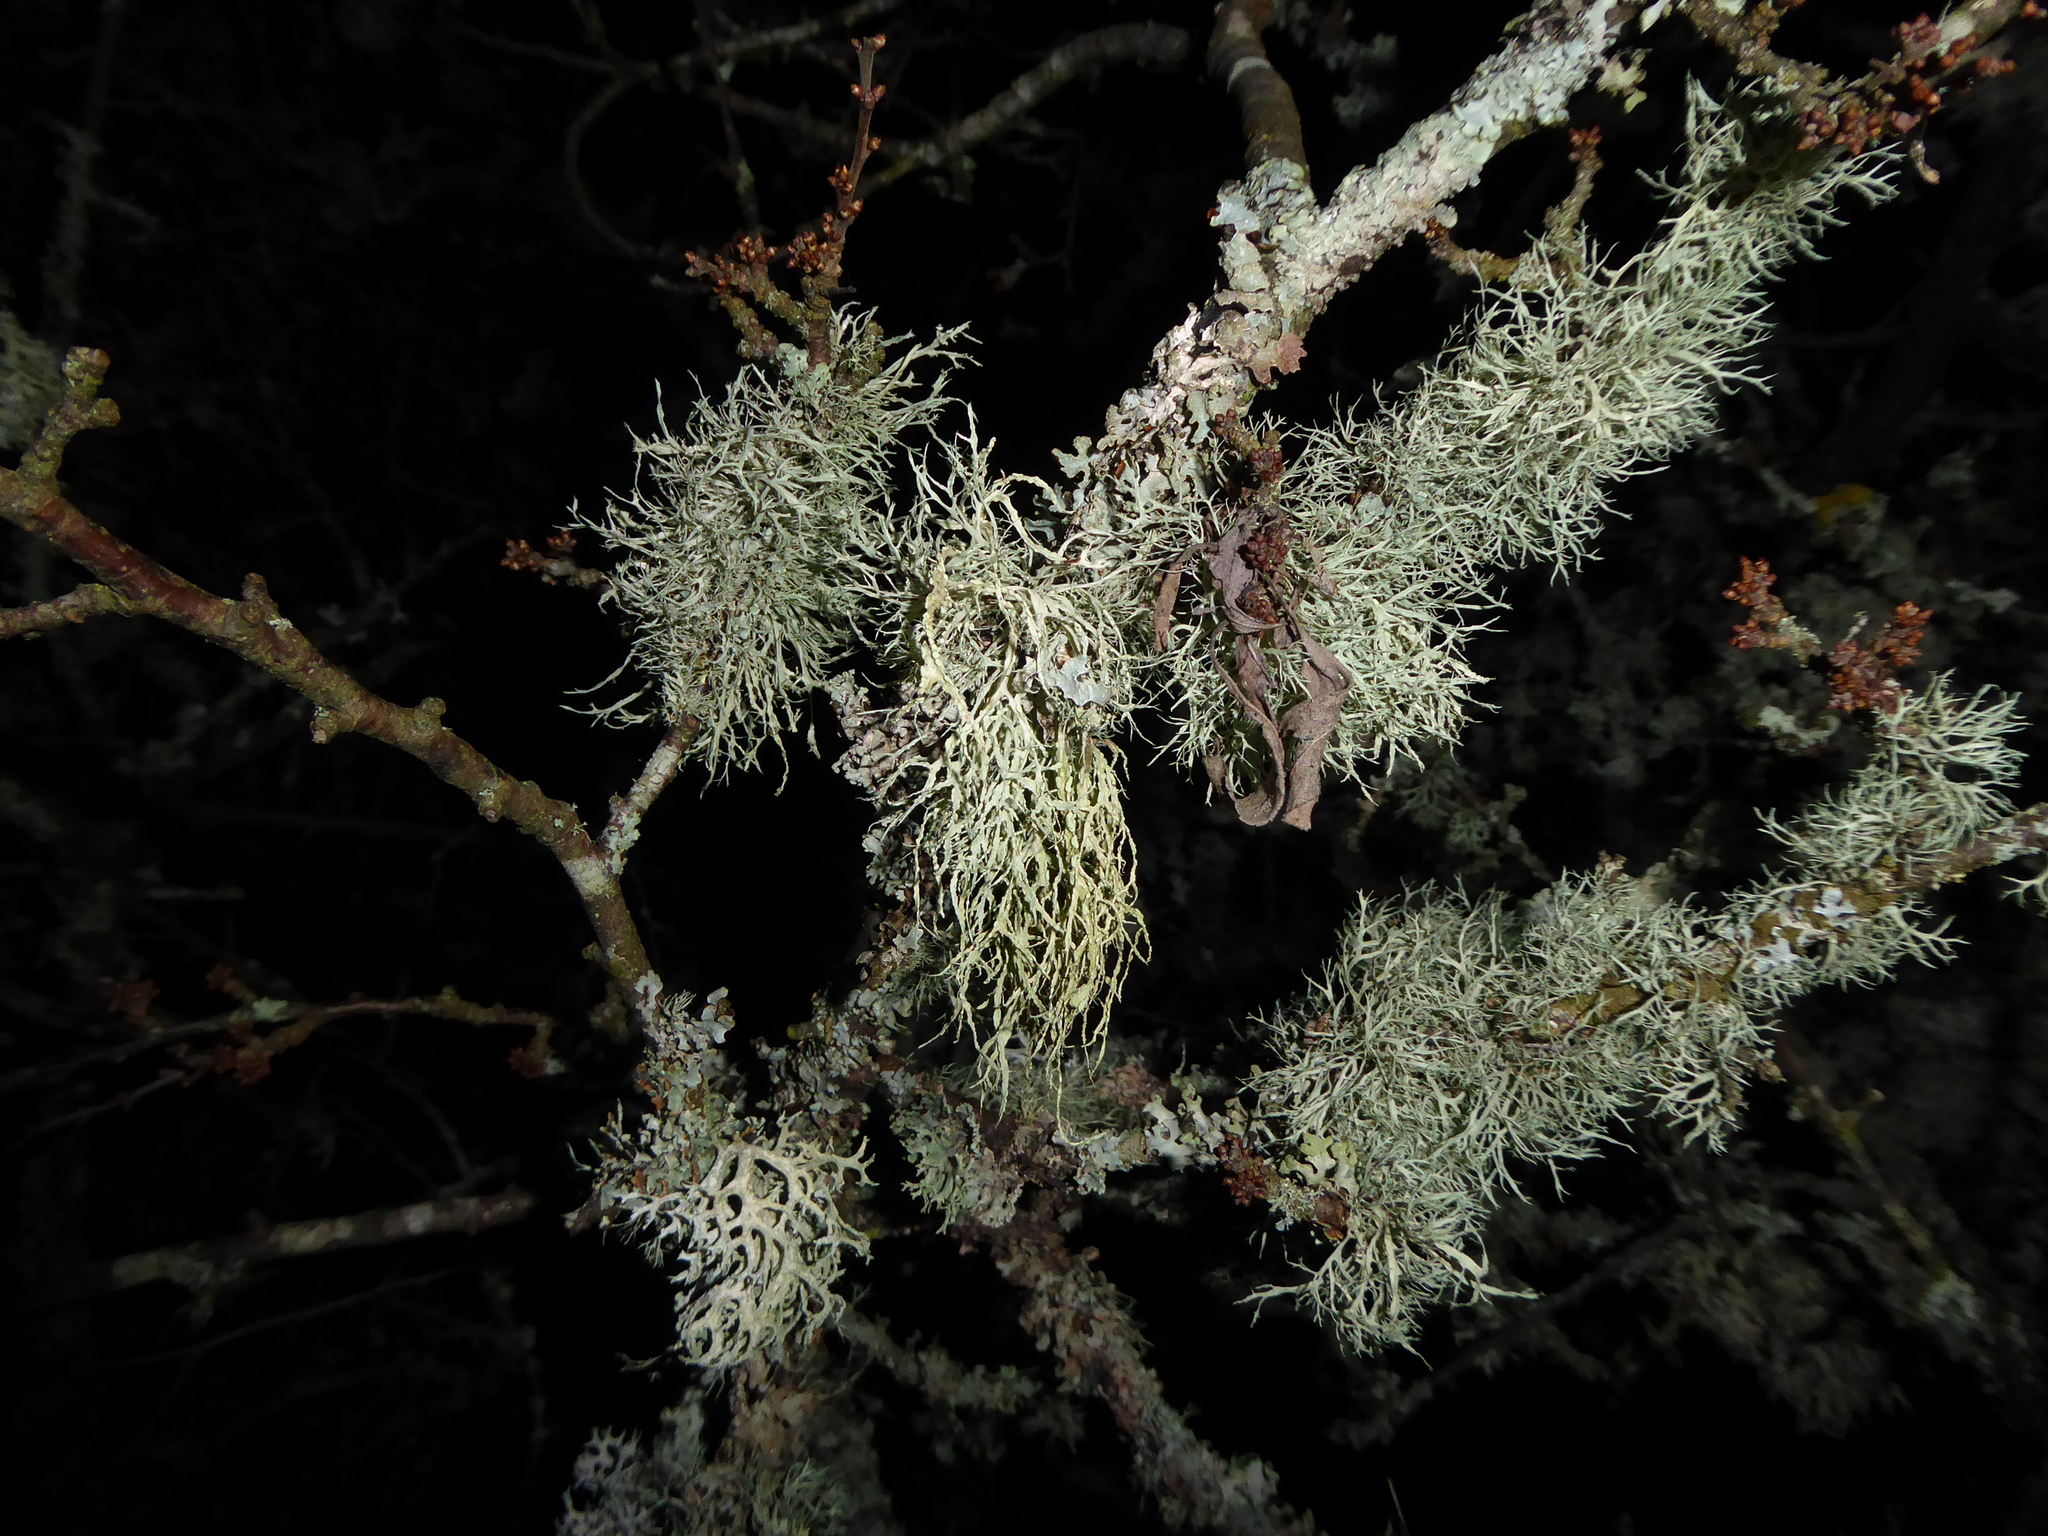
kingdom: Fungi
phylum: Ascomycota
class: Lecanoromycetes
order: Lecanorales
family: Ramalinaceae
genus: Ramalina
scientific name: Ramalina farinacea
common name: Farinose cartilage lichen
